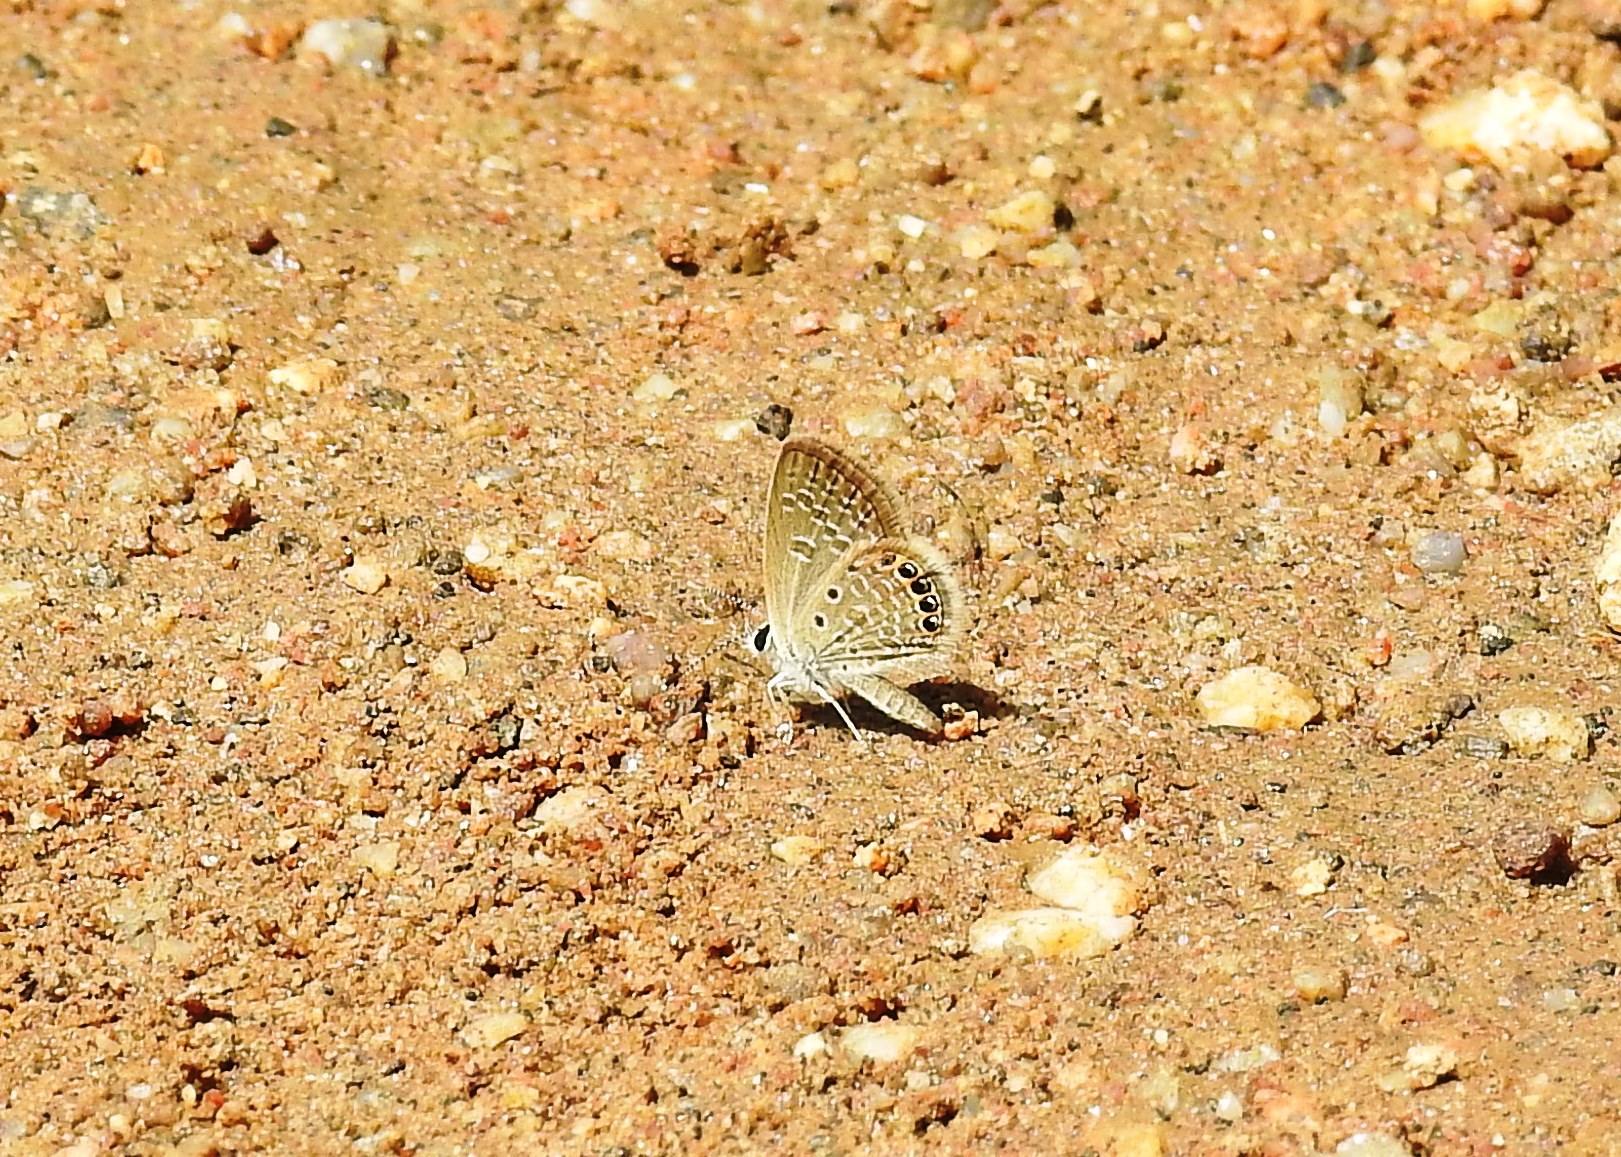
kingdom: Animalia
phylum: Arthropoda
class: Insecta
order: Lepidoptera
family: Lycaenidae
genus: Freyeria
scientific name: Freyeria putli
